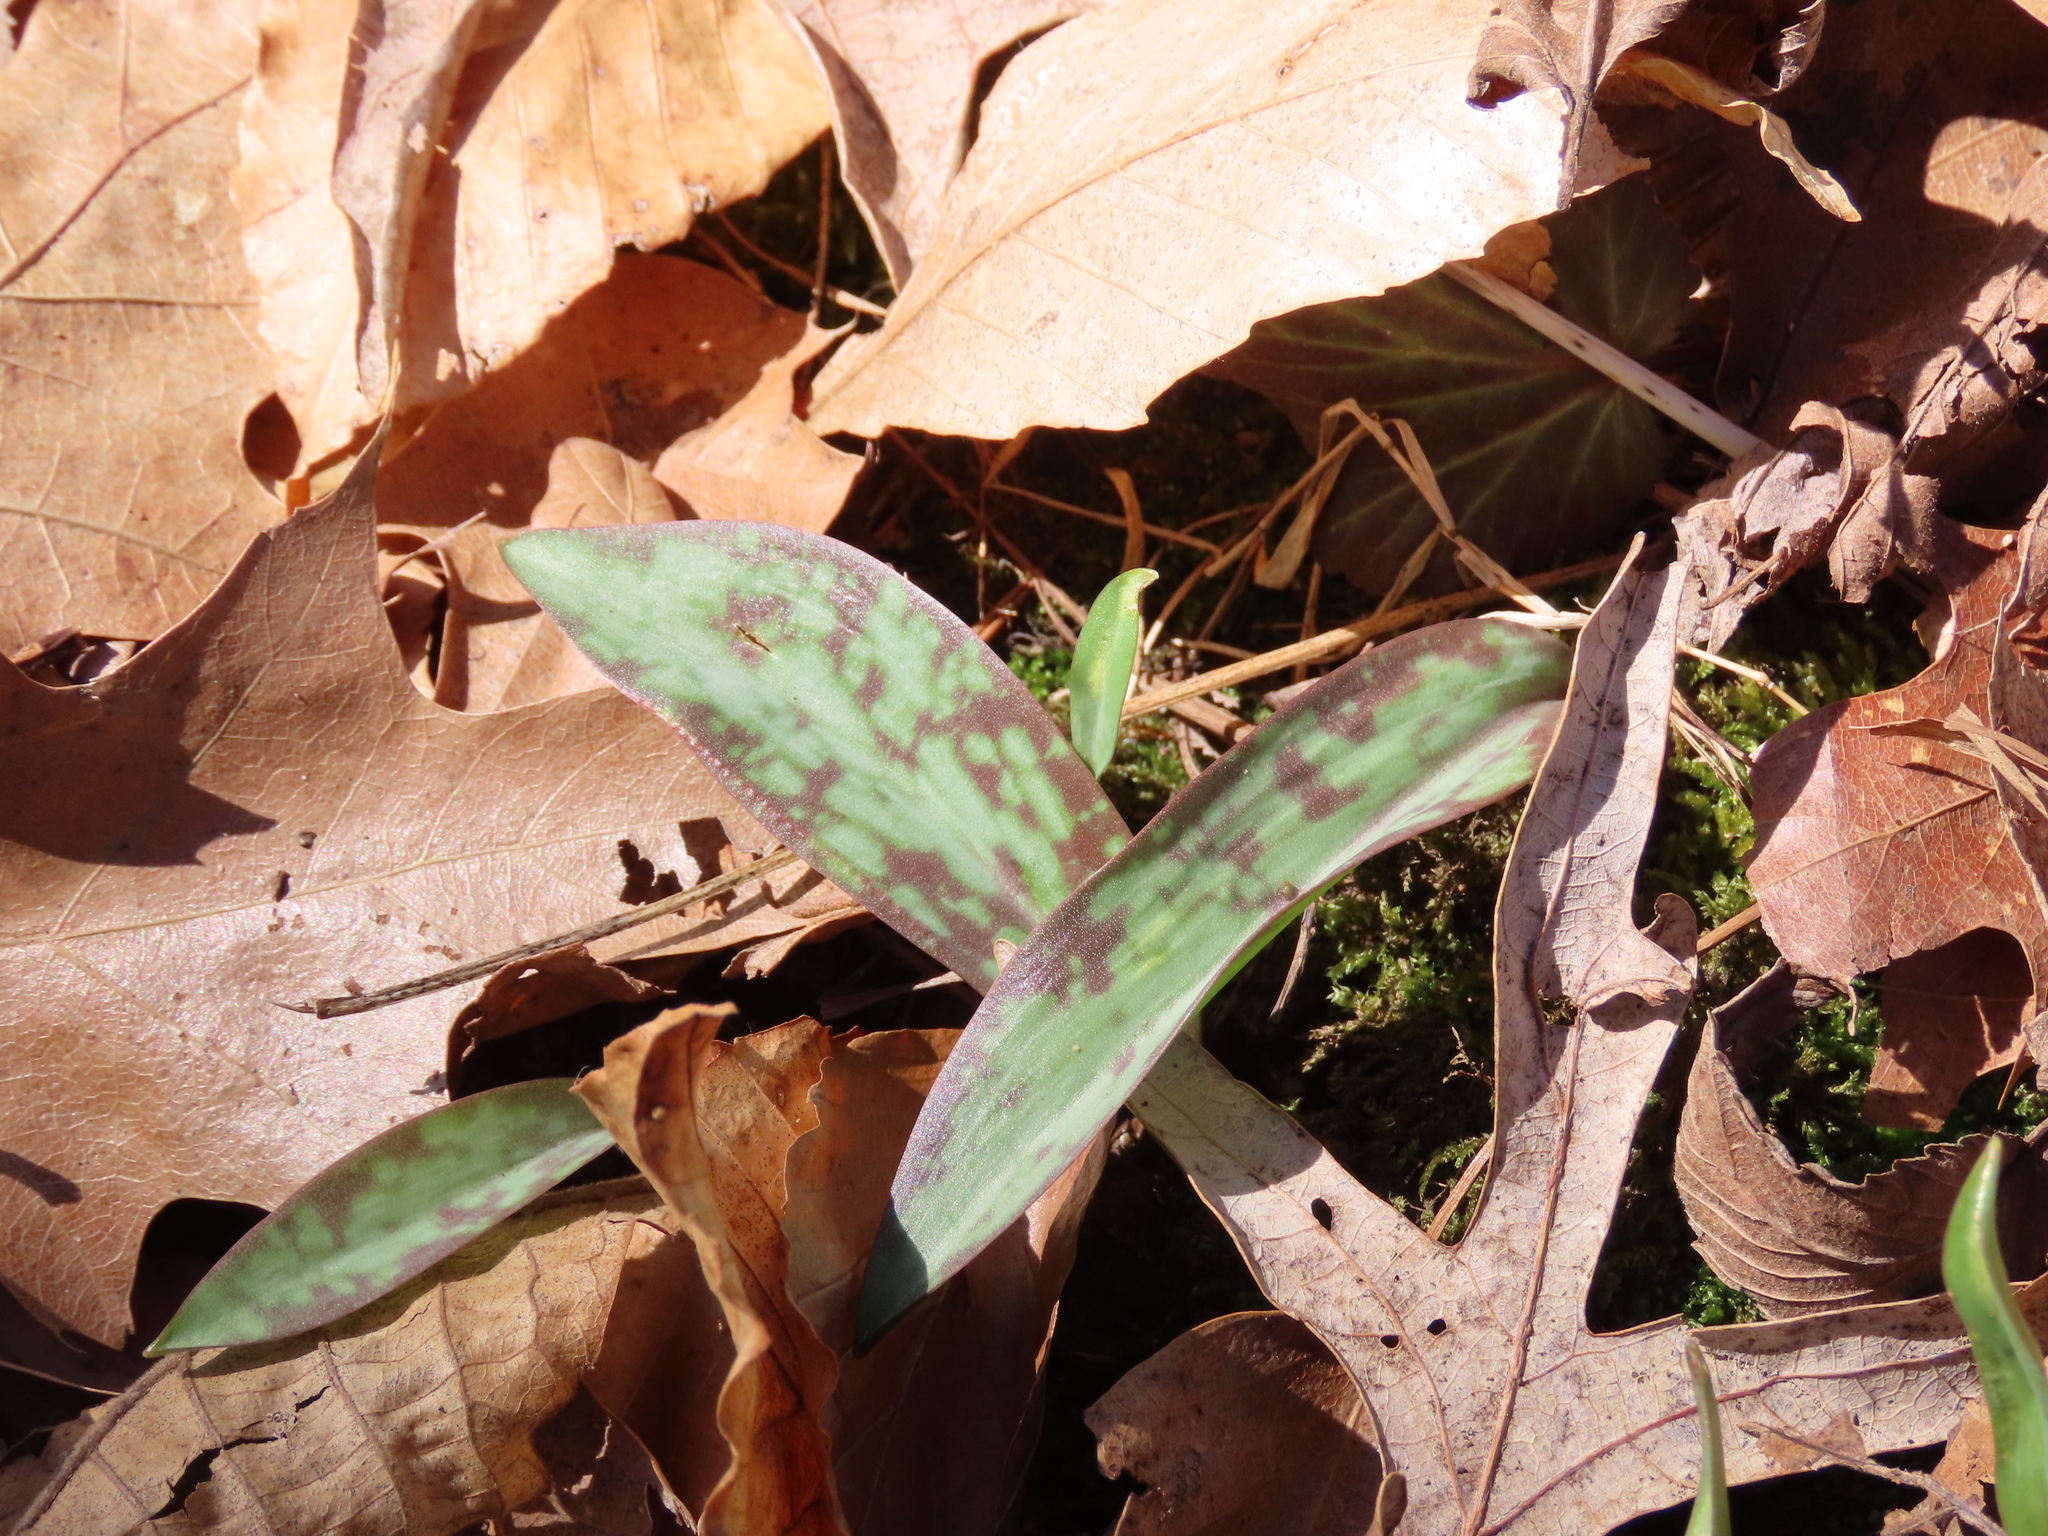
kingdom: Plantae
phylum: Tracheophyta
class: Liliopsida
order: Liliales
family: Liliaceae
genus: Erythronium
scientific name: Erythronium americanum
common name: Yellow adder's-tongue
